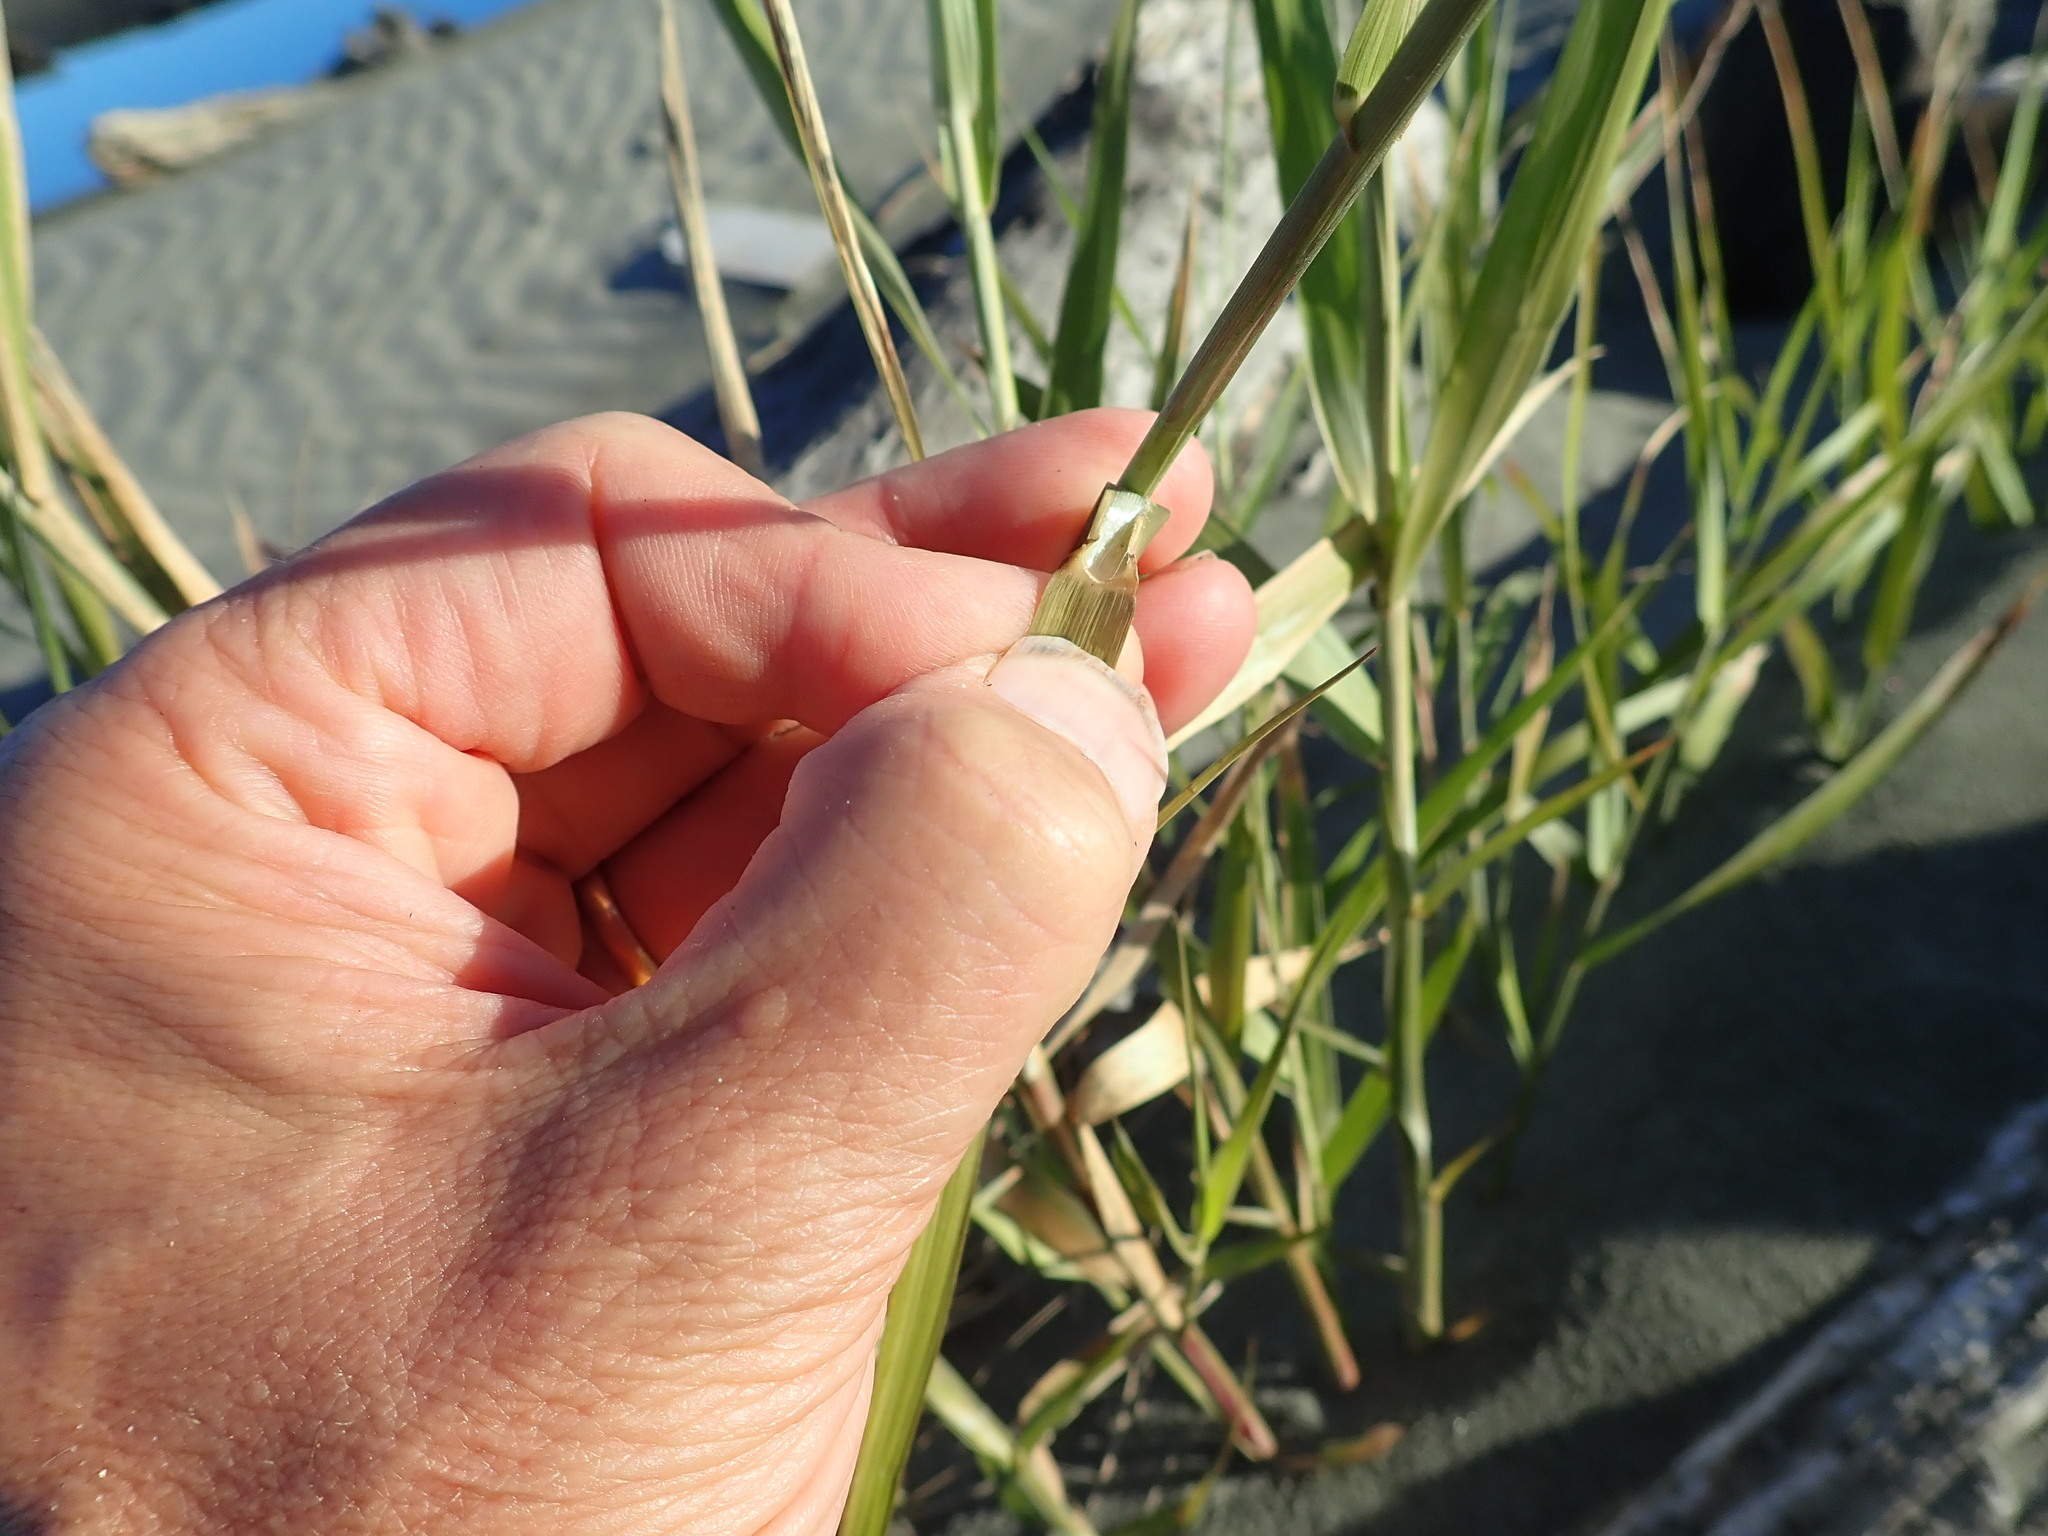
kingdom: Plantae
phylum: Tracheophyta
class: Liliopsida
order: Poales
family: Poaceae
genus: Phragmites
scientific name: Phragmites karka
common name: Tropical reed
